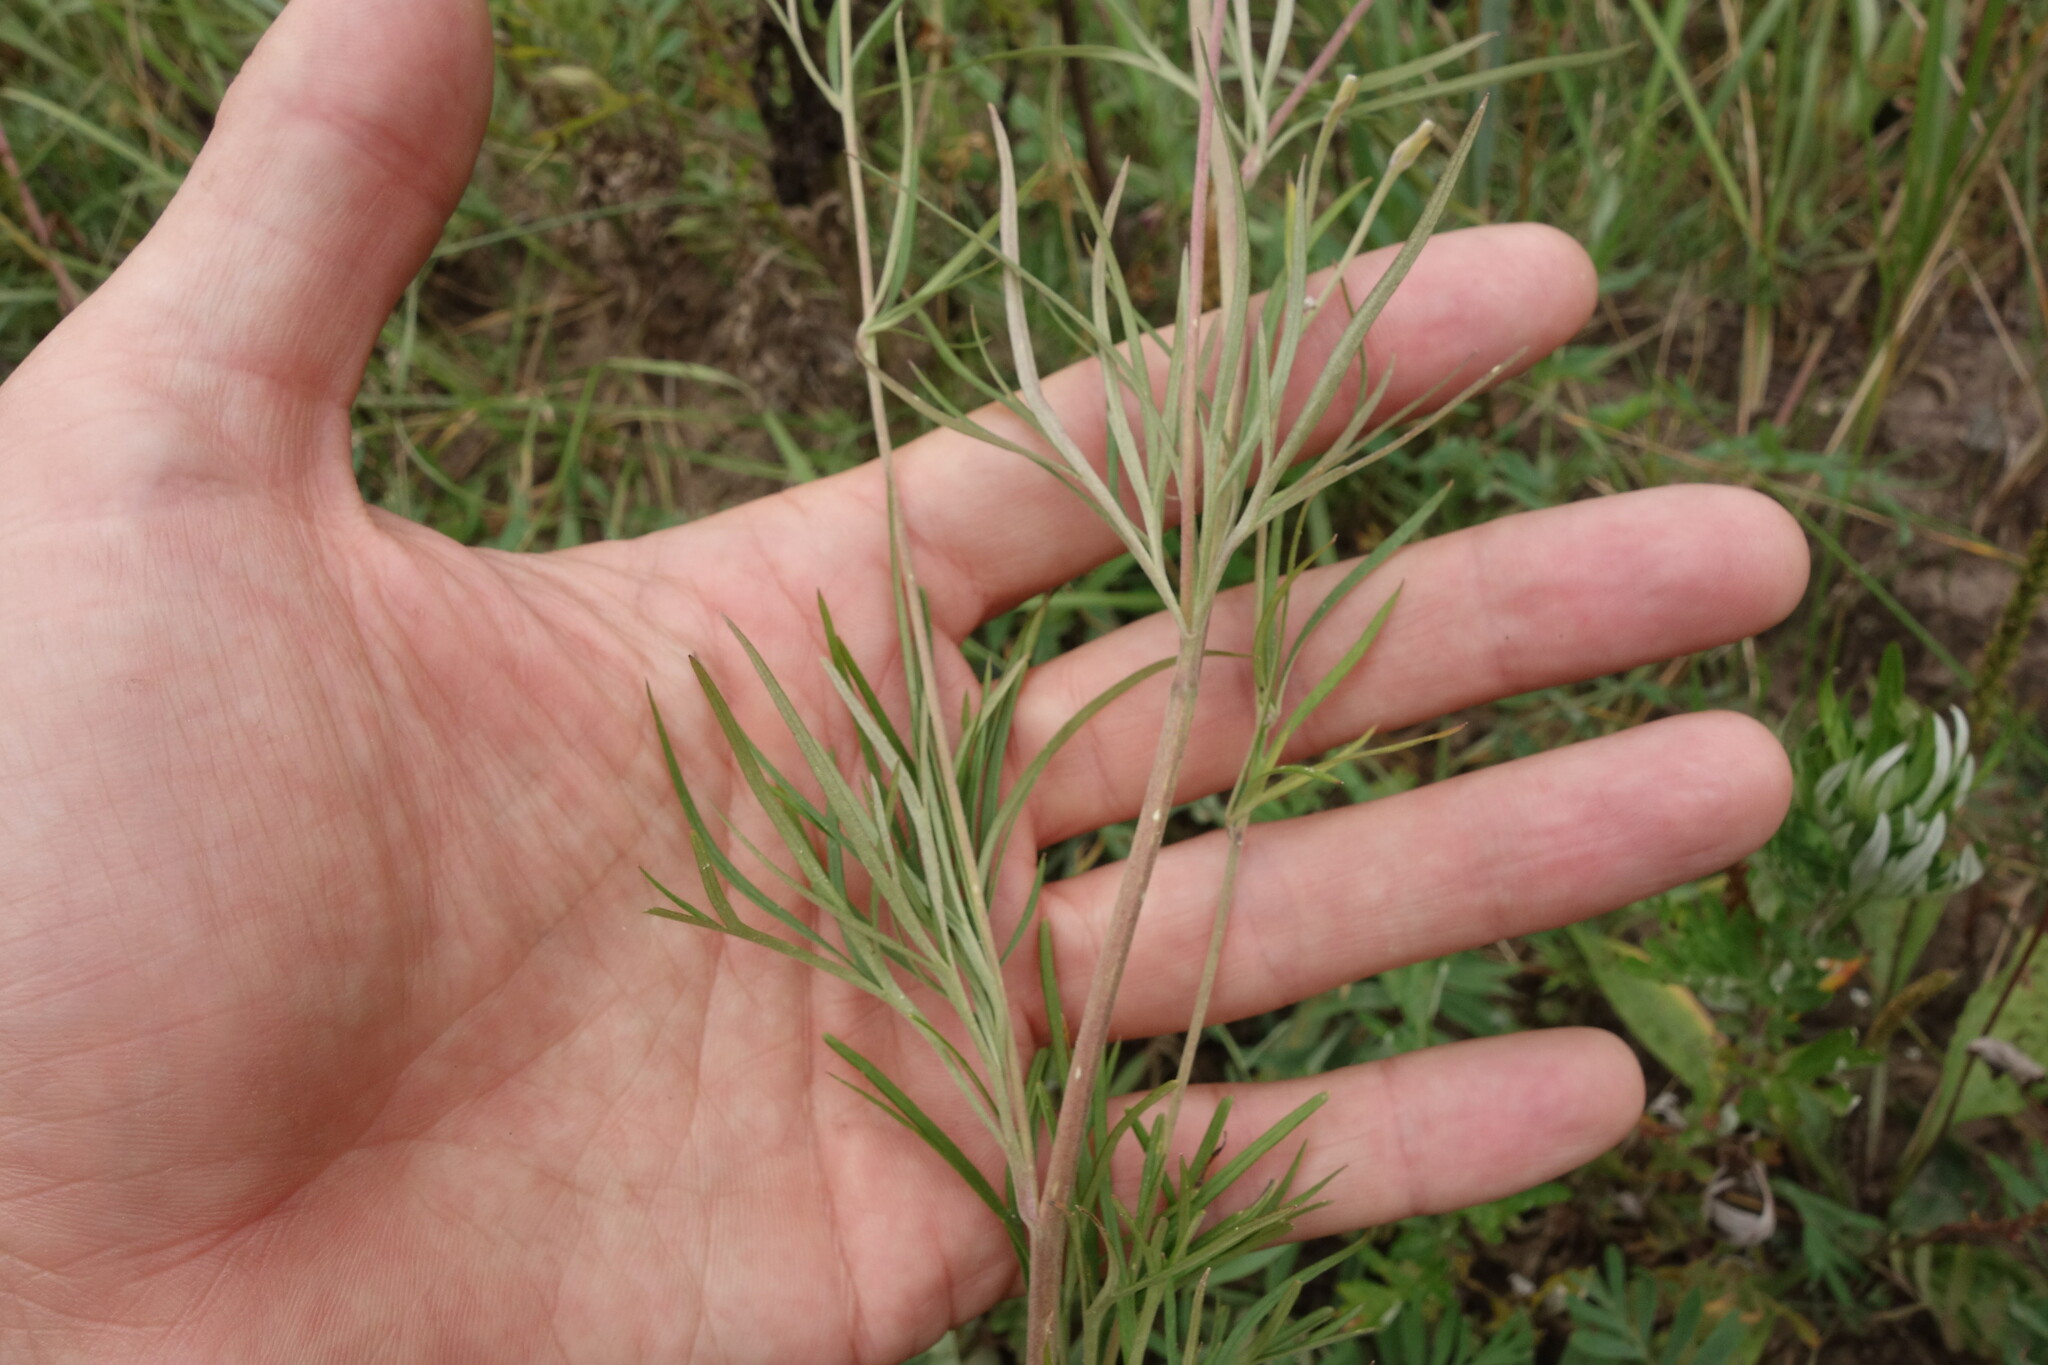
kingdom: Plantae
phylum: Tracheophyta
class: Magnoliopsida
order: Ranunculales
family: Ranunculaceae
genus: Delphinium
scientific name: Delphinium grandiflorum
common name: Siberian larkspur
